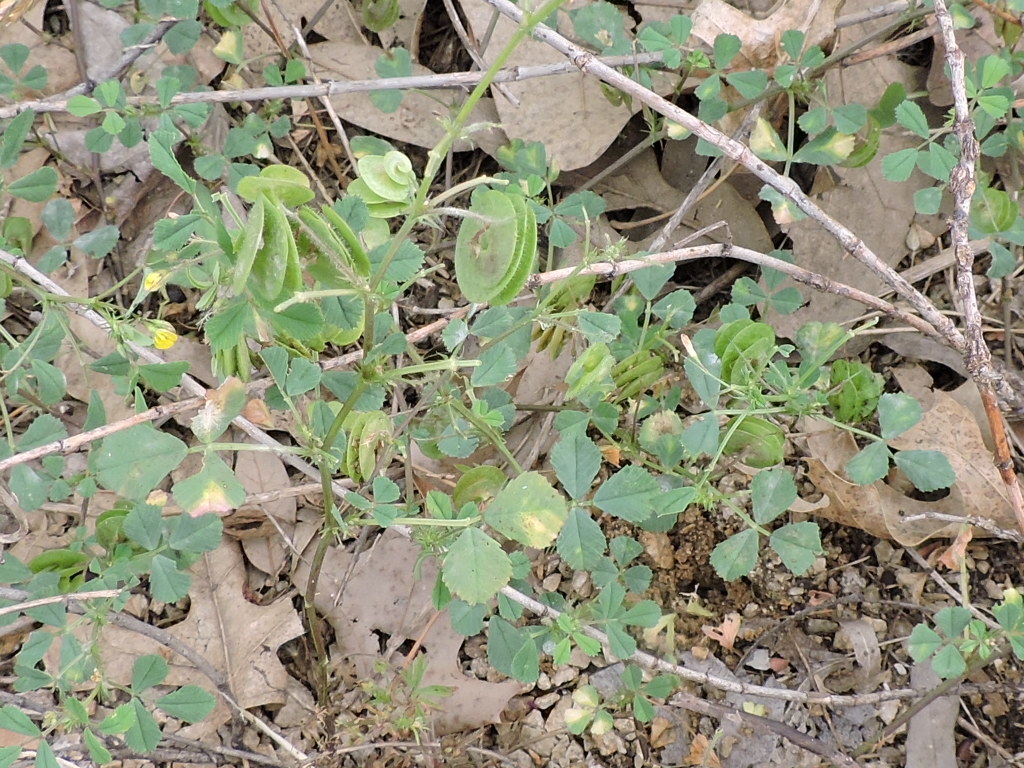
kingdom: Plantae
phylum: Tracheophyta
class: Magnoliopsida
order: Fabales
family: Fabaceae
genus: Medicago
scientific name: Medicago orbicularis
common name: Button medick
